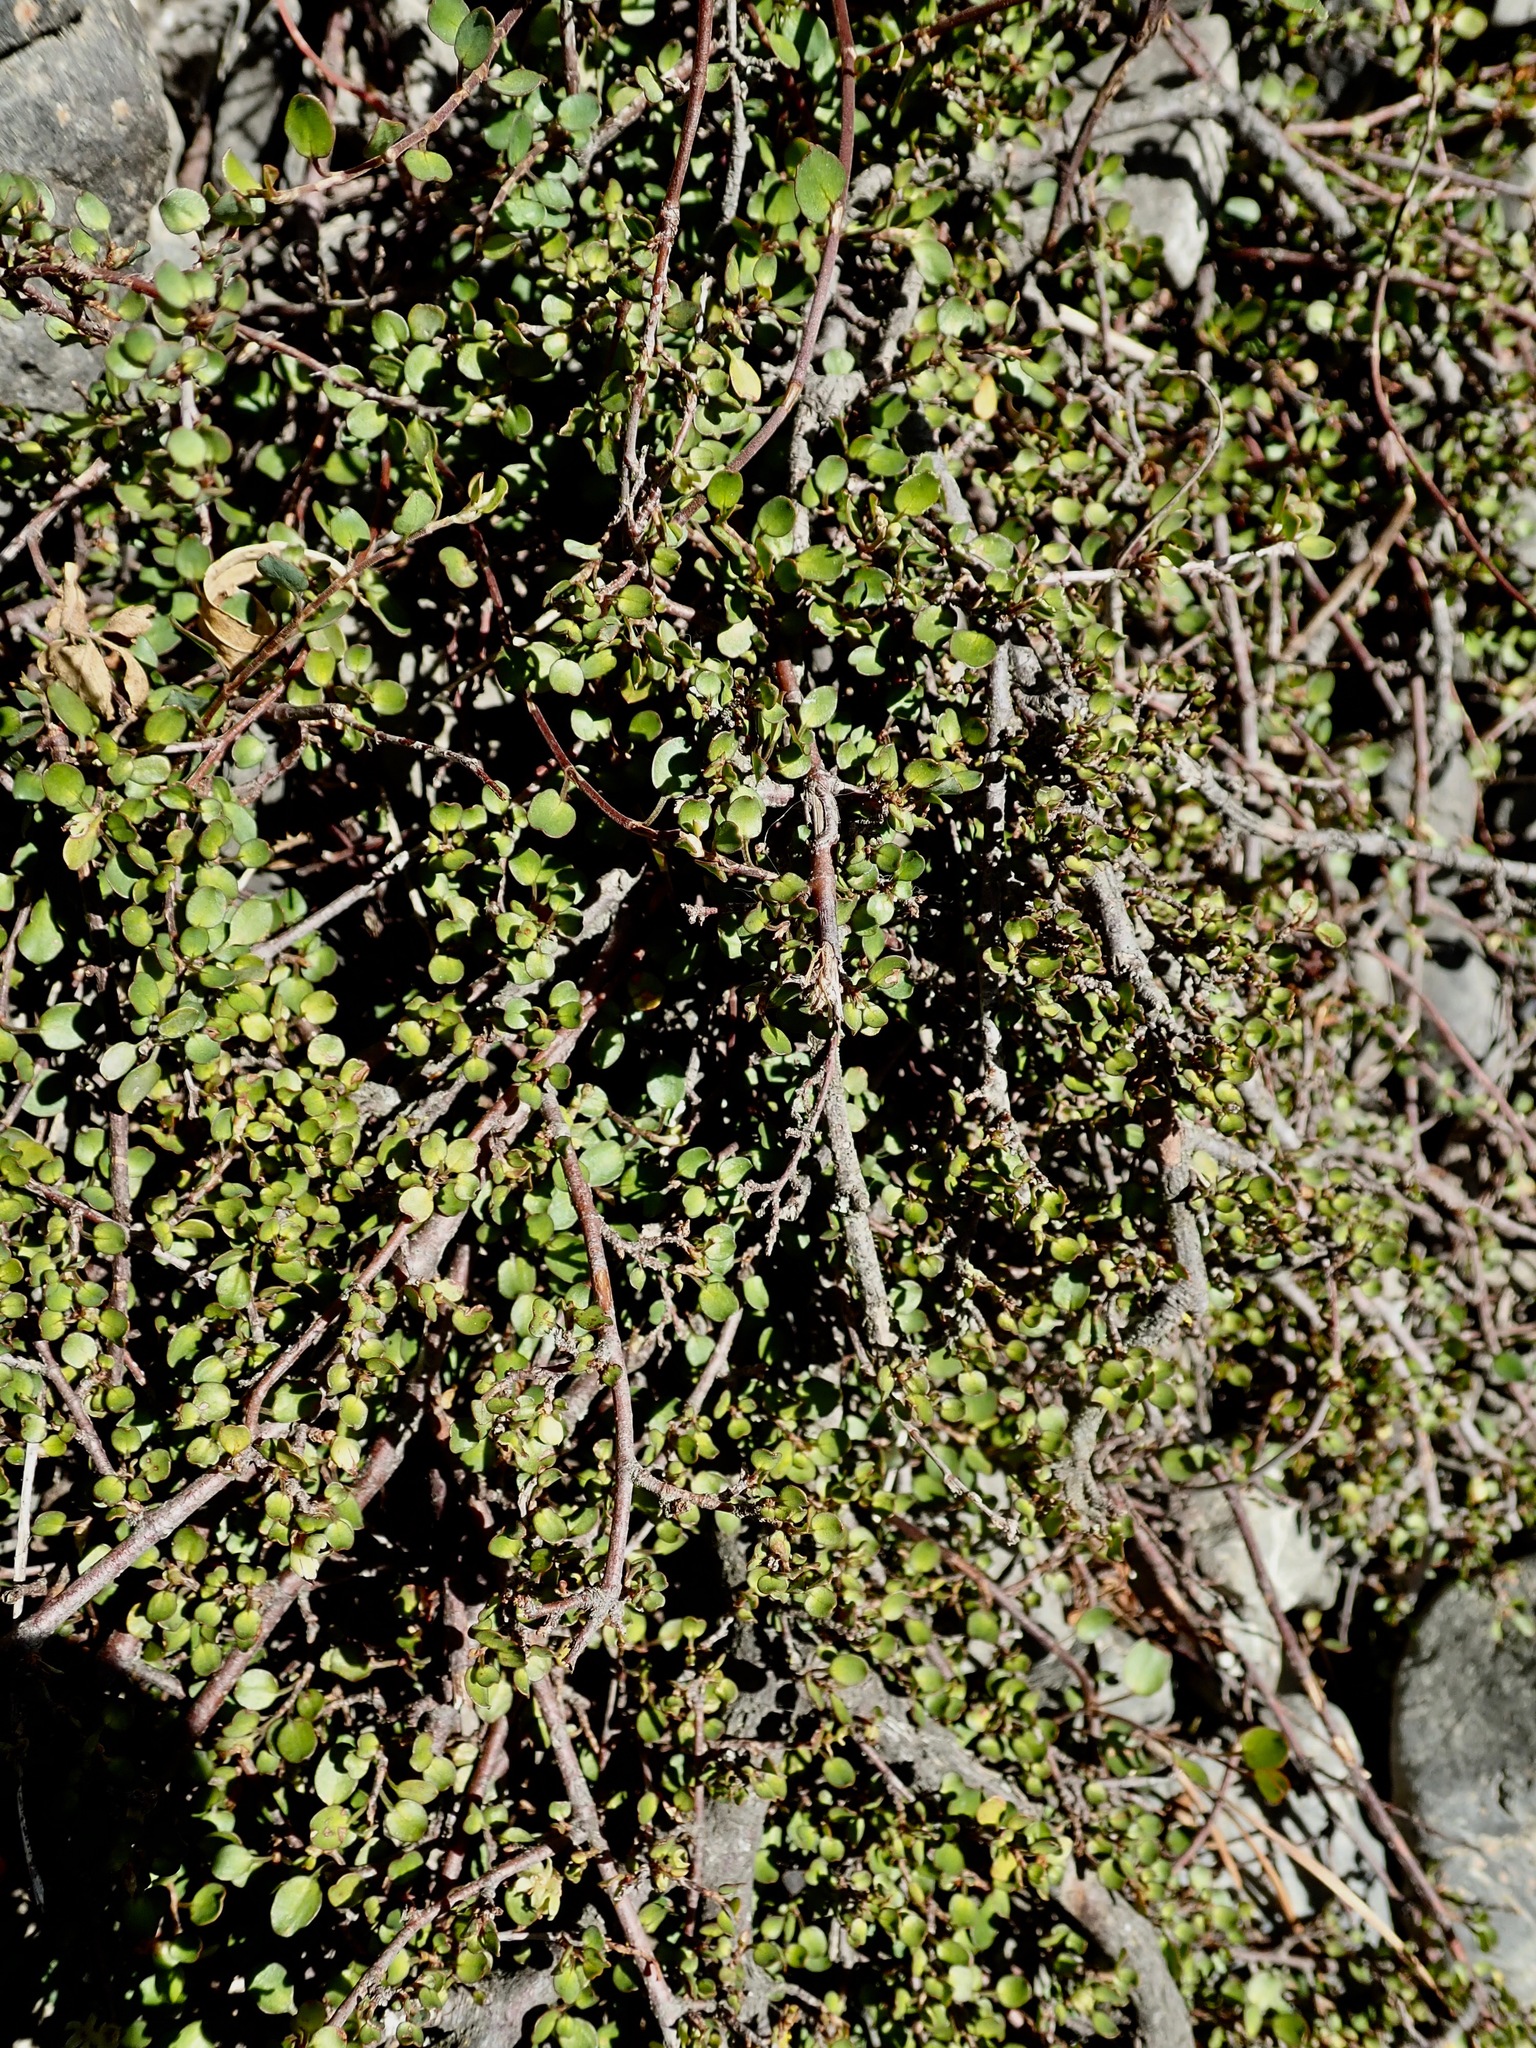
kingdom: Plantae
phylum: Tracheophyta
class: Magnoliopsida
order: Caryophyllales
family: Polygonaceae
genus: Muehlenbeckia
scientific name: Muehlenbeckia complexa
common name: Wireplant
